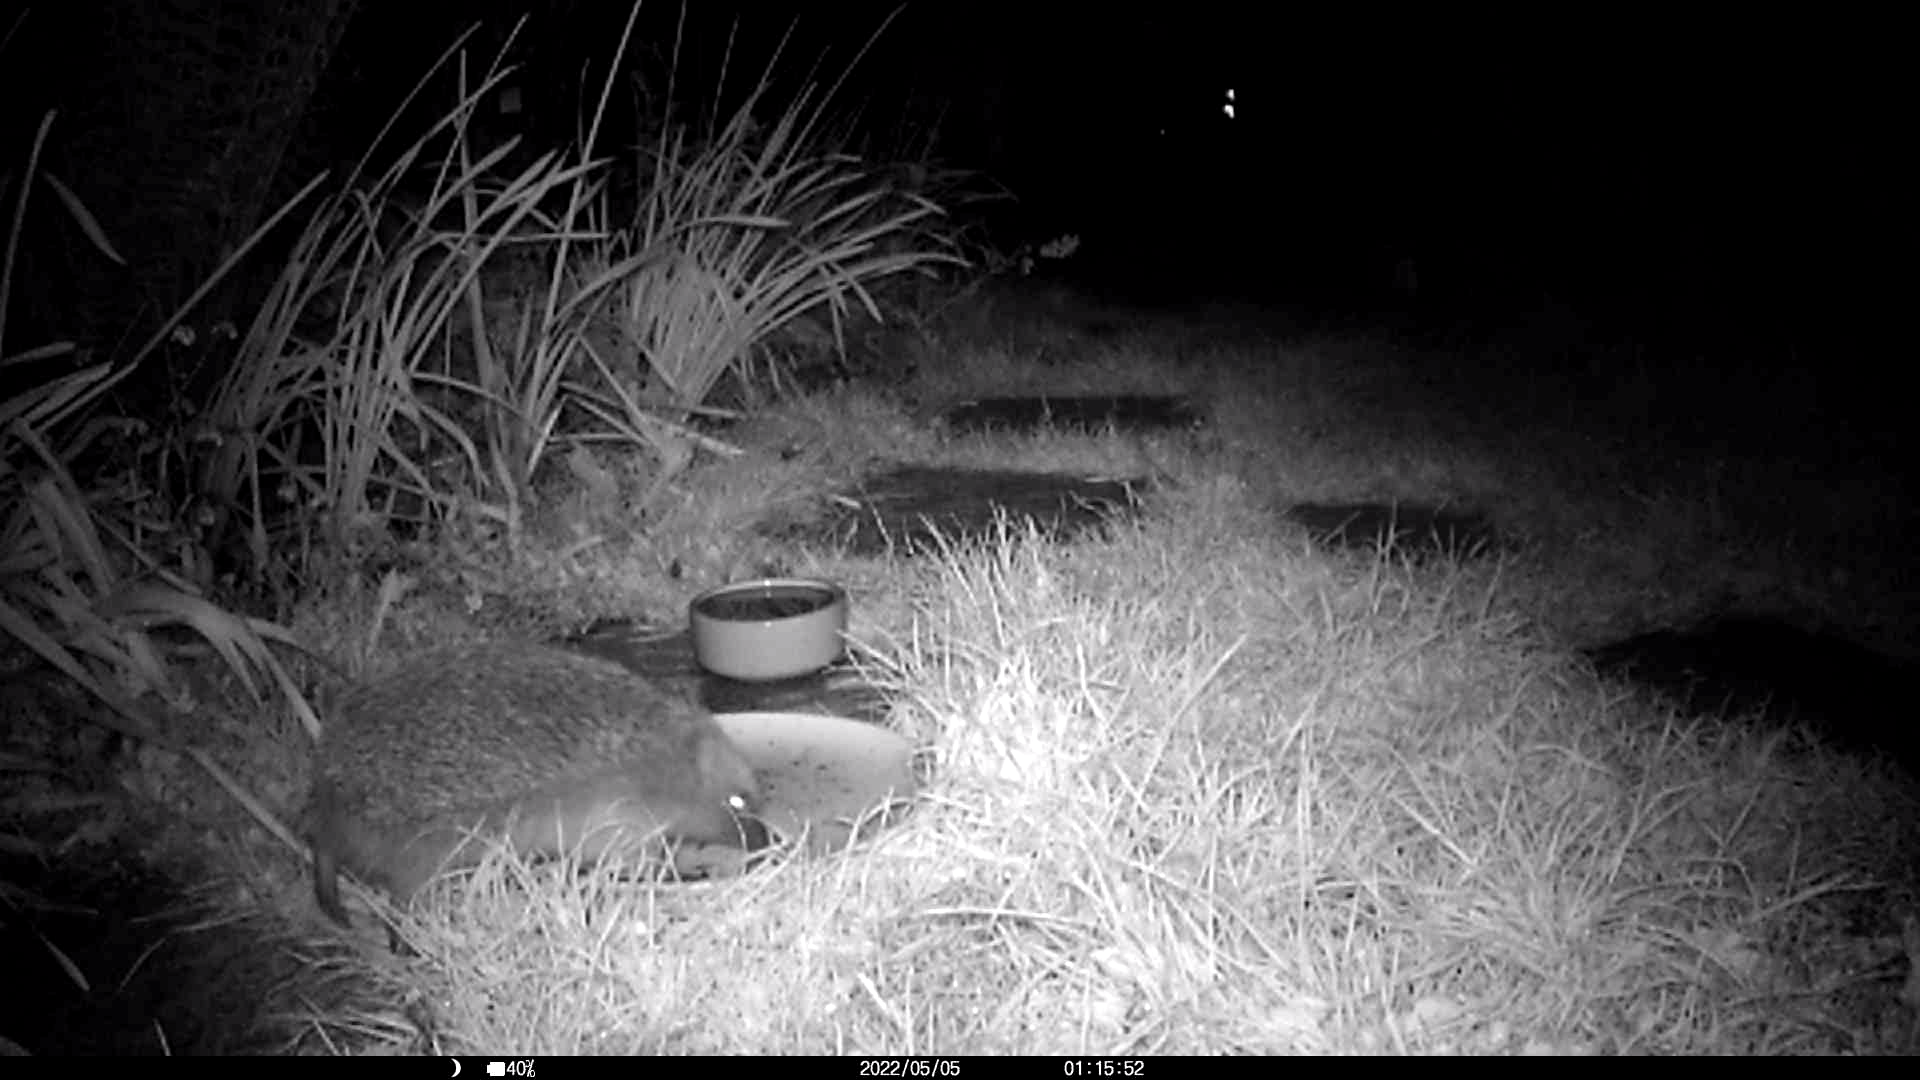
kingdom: Animalia
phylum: Chordata
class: Mammalia
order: Erinaceomorpha
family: Erinaceidae
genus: Erinaceus
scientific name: Erinaceus europaeus
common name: West european hedgehog
